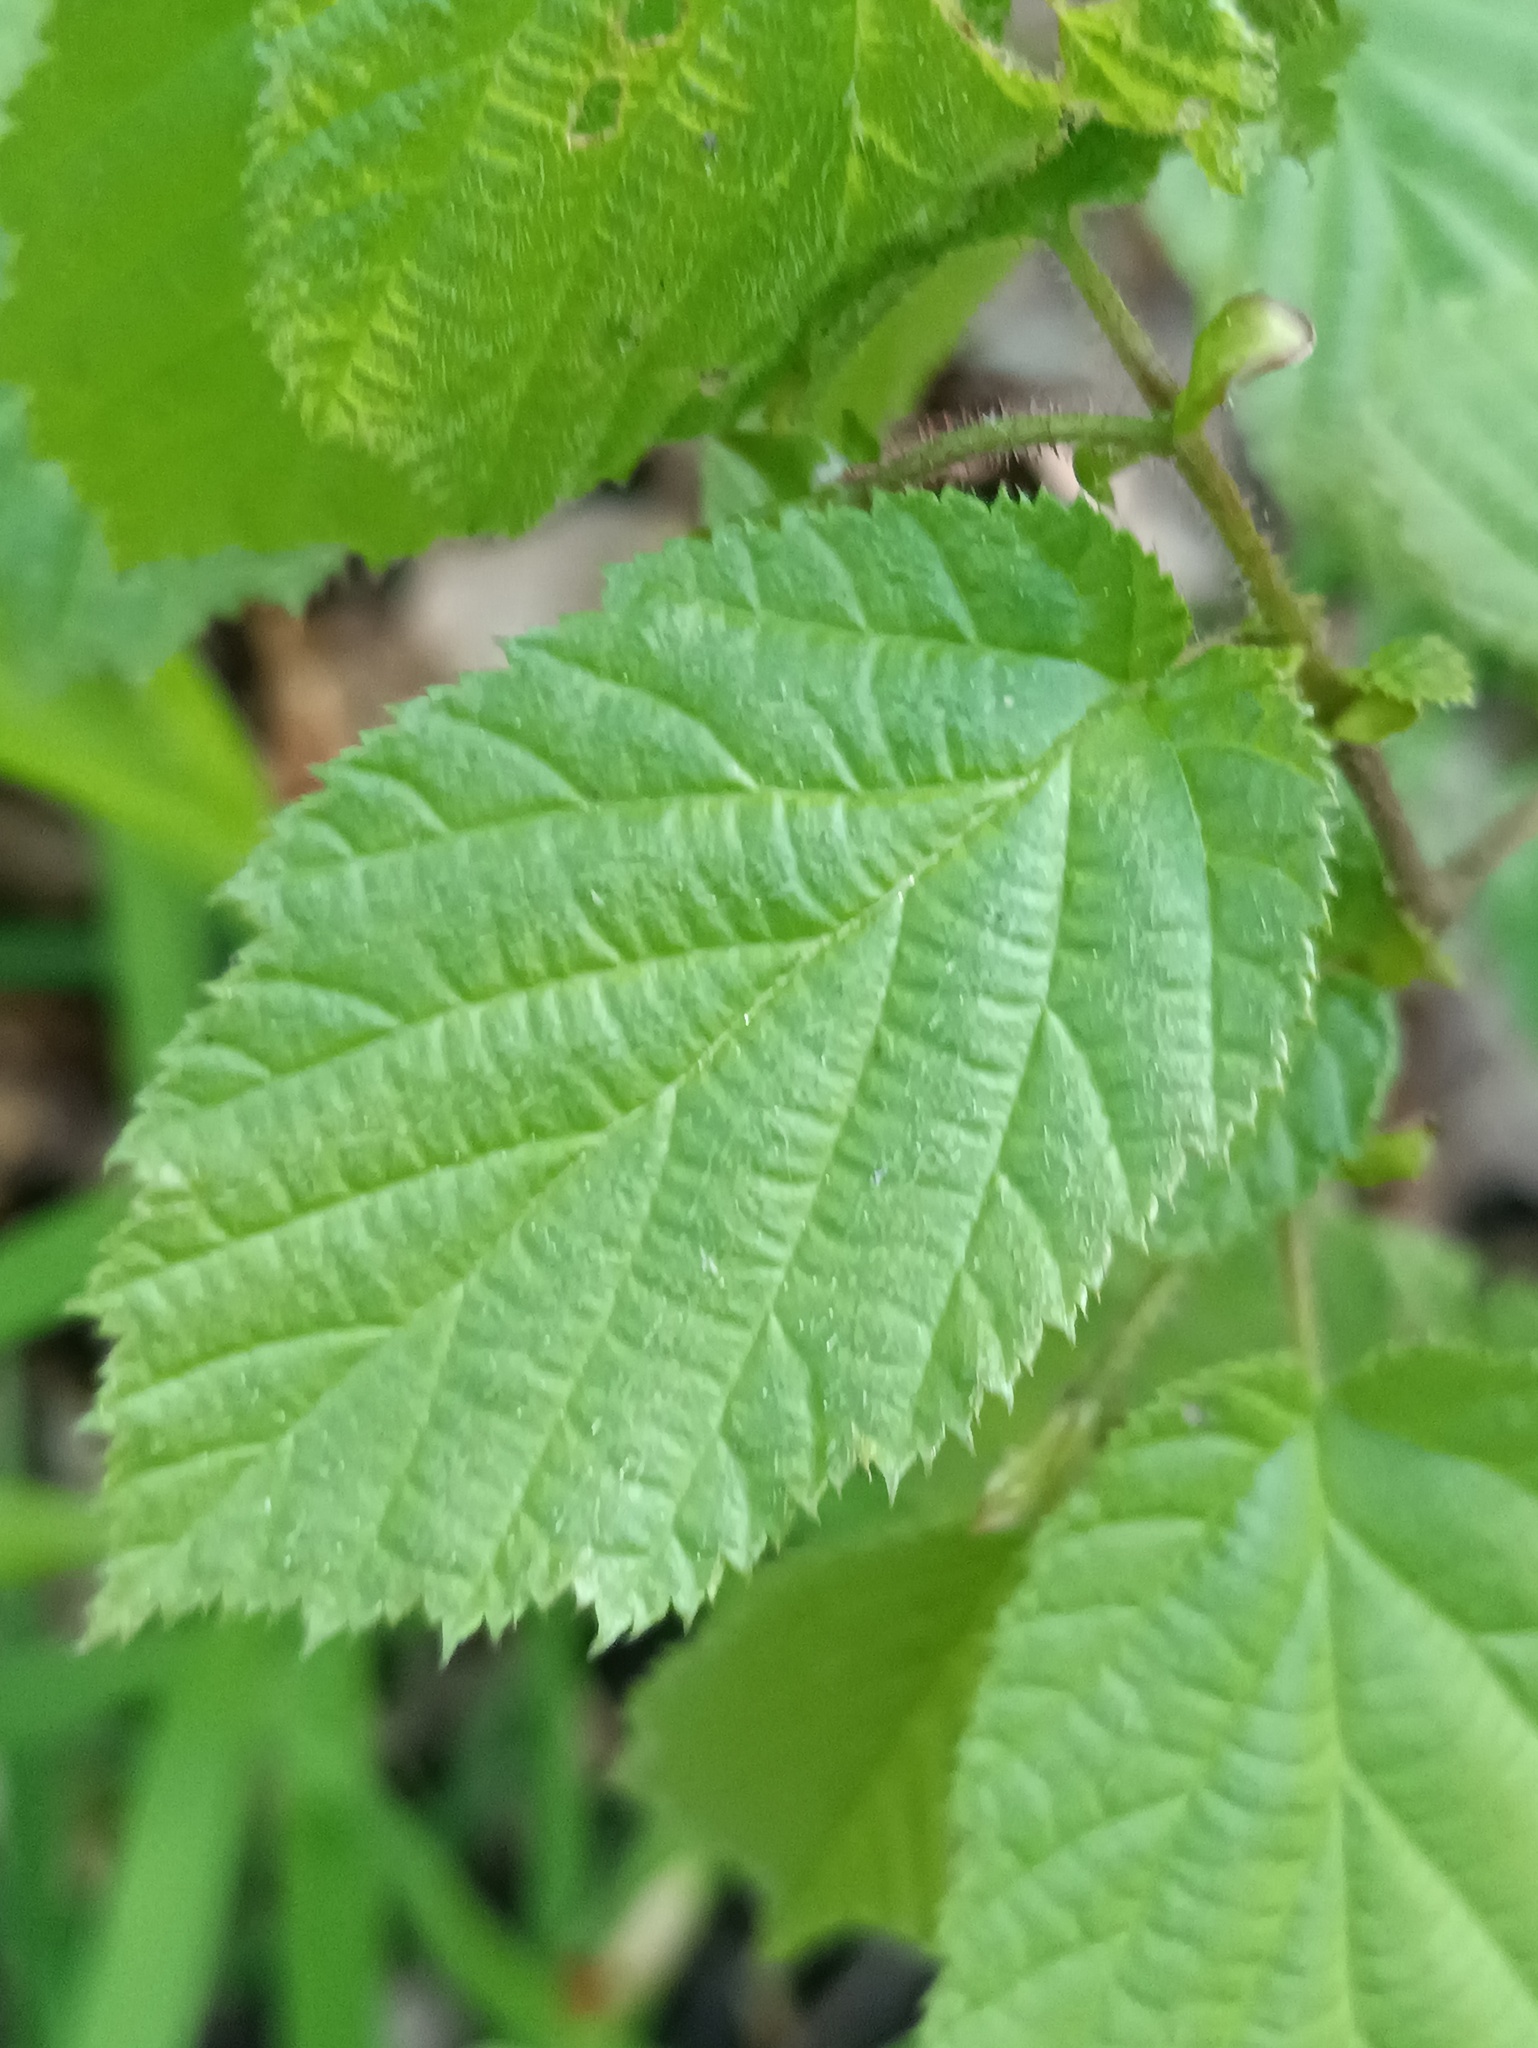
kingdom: Plantae
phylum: Tracheophyta
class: Magnoliopsida
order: Fagales
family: Betulaceae
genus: Corylus
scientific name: Corylus avellana
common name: European hazel
